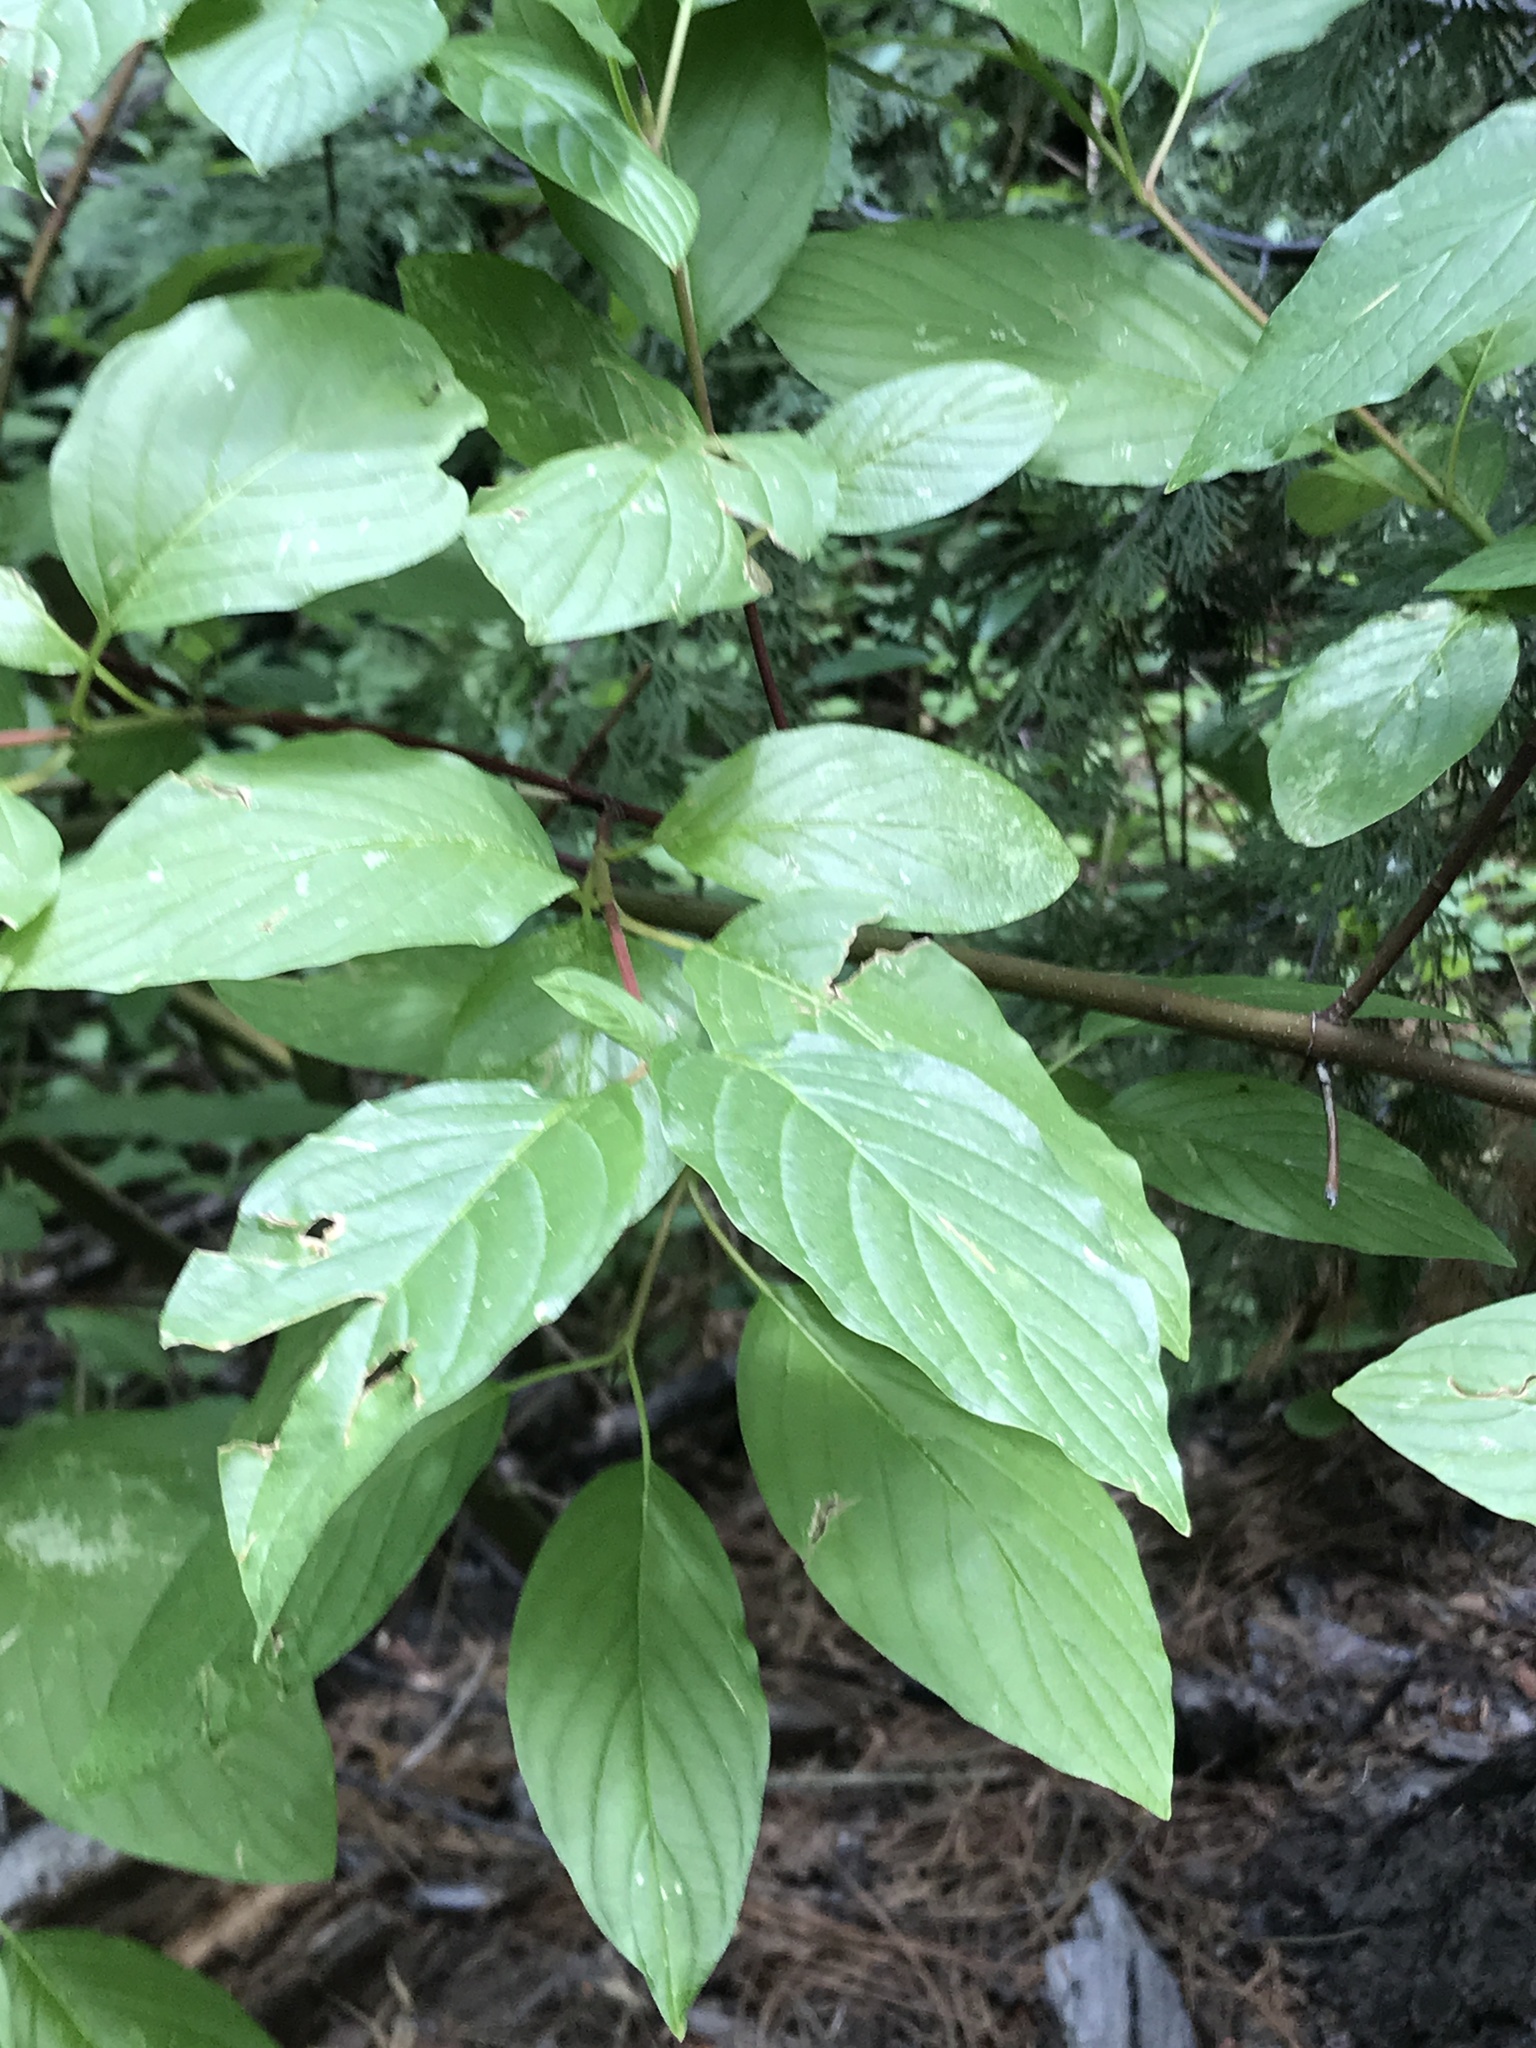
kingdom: Plantae
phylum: Tracheophyta
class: Magnoliopsida
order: Cornales
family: Cornaceae
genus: Cornus
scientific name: Cornus sericea
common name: Red-osier dogwood
